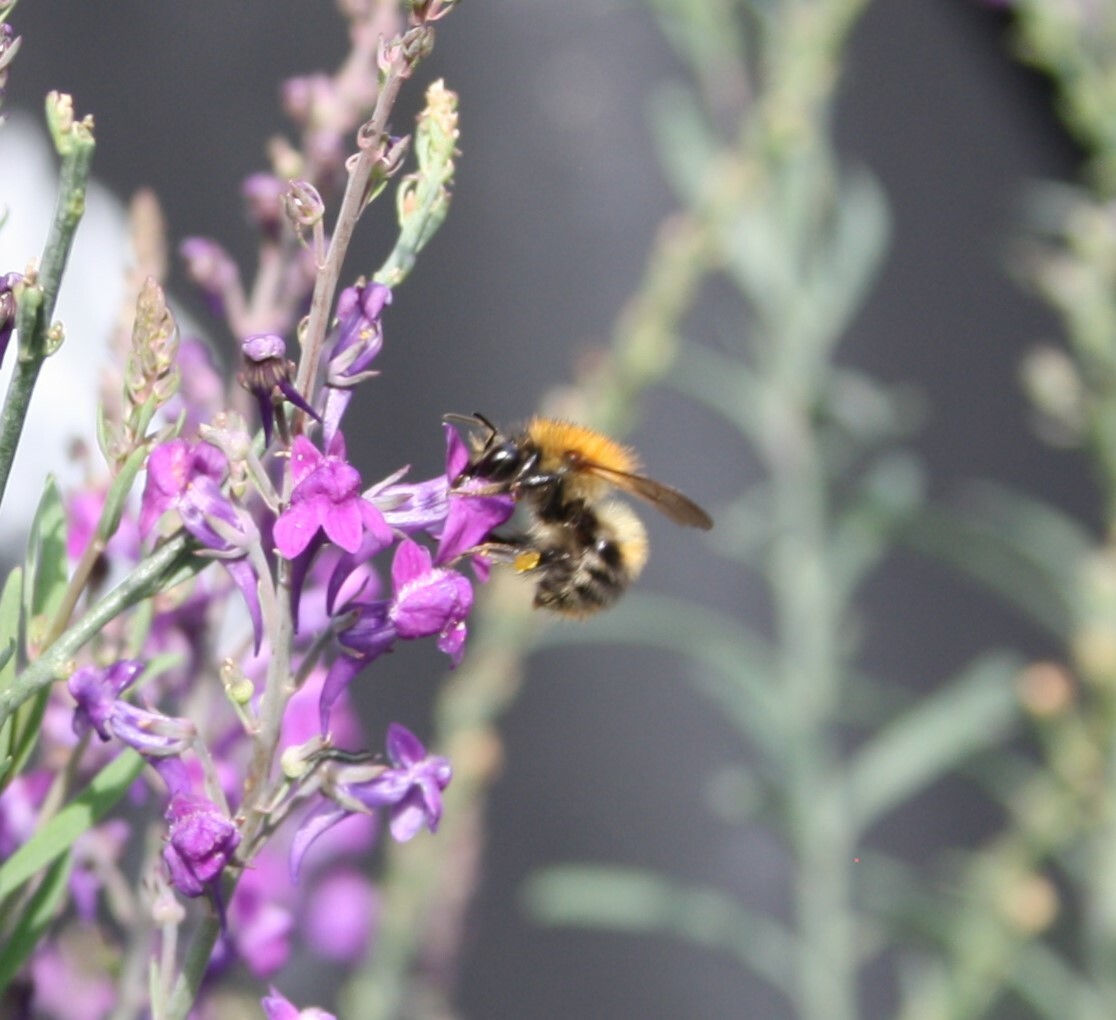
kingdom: Animalia
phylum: Arthropoda
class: Insecta
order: Hymenoptera
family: Apidae
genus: Bombus
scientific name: Bombus pascuorum
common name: Common carder bee
